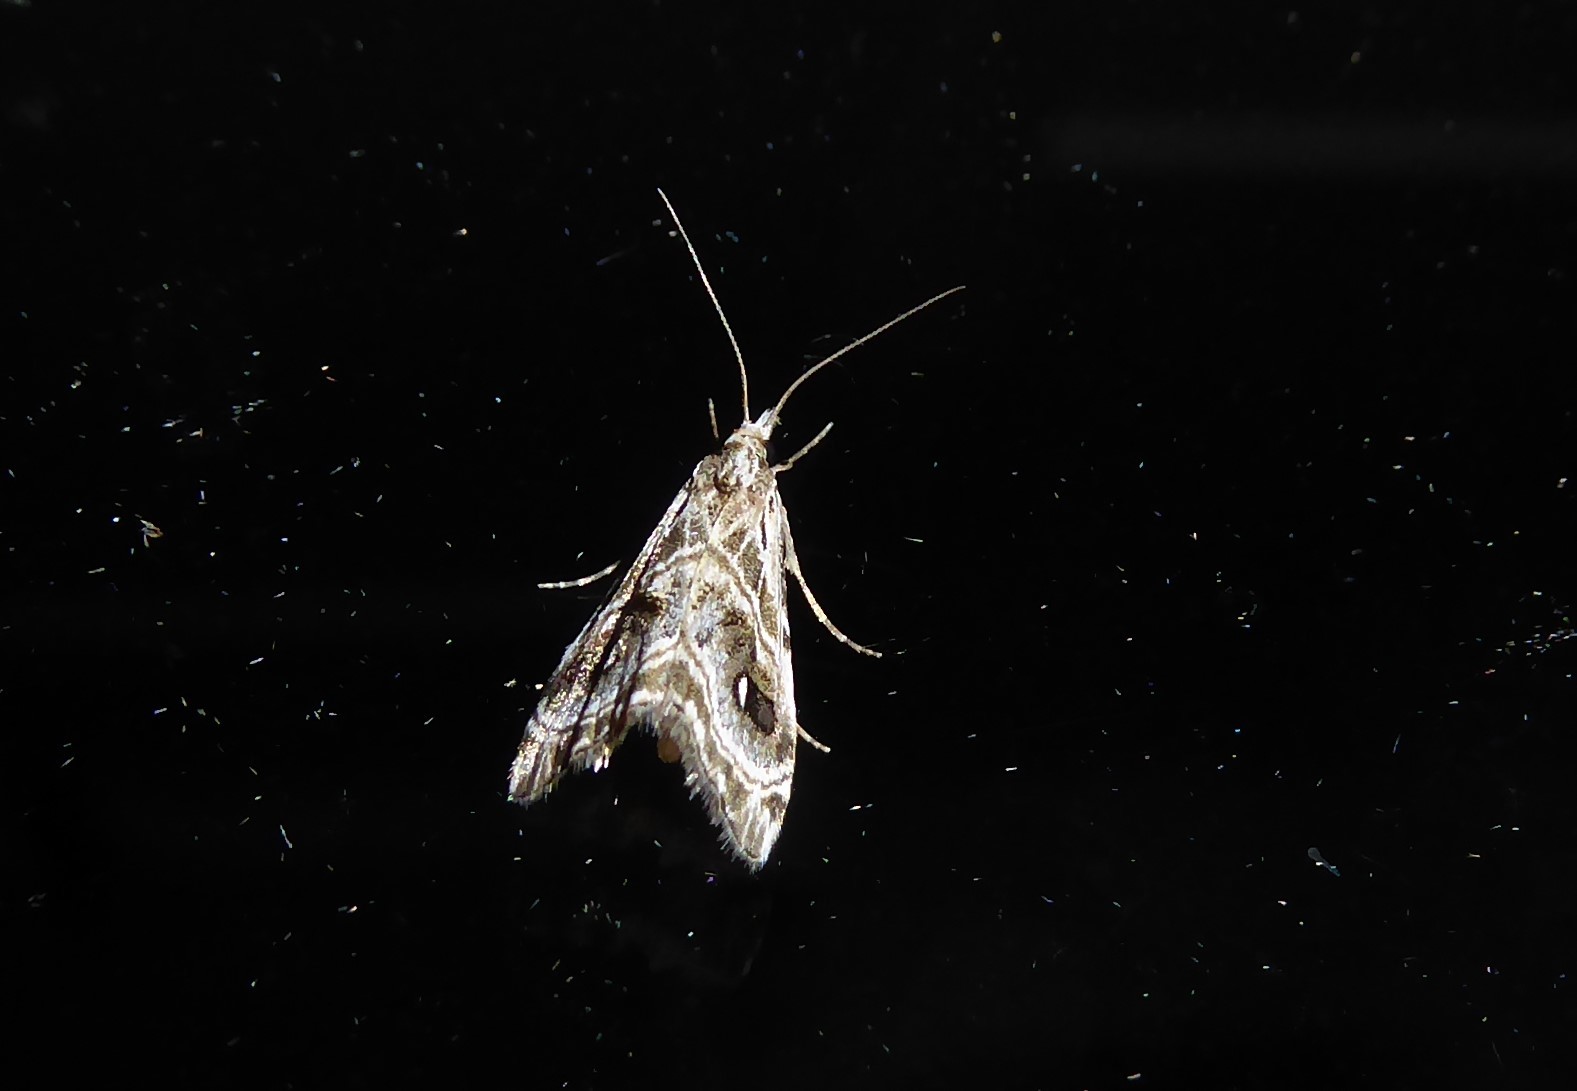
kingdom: Animalia
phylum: Arthropoda
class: Insecta
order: Lepidoptera
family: Crambidae
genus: Gadira
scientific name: Gadira acerella
